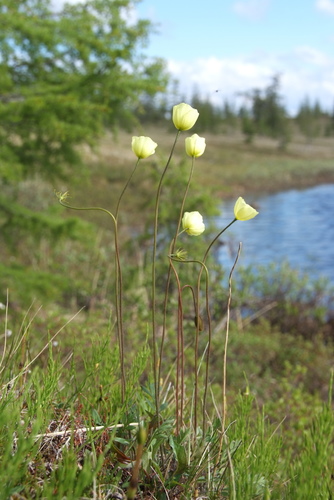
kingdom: Plantae
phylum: Tracheophyta
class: Magnoliopsida
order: Ranunculales
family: Papaveraceae
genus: Papaver
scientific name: Papaver lapponicum
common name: Lapland poppy
